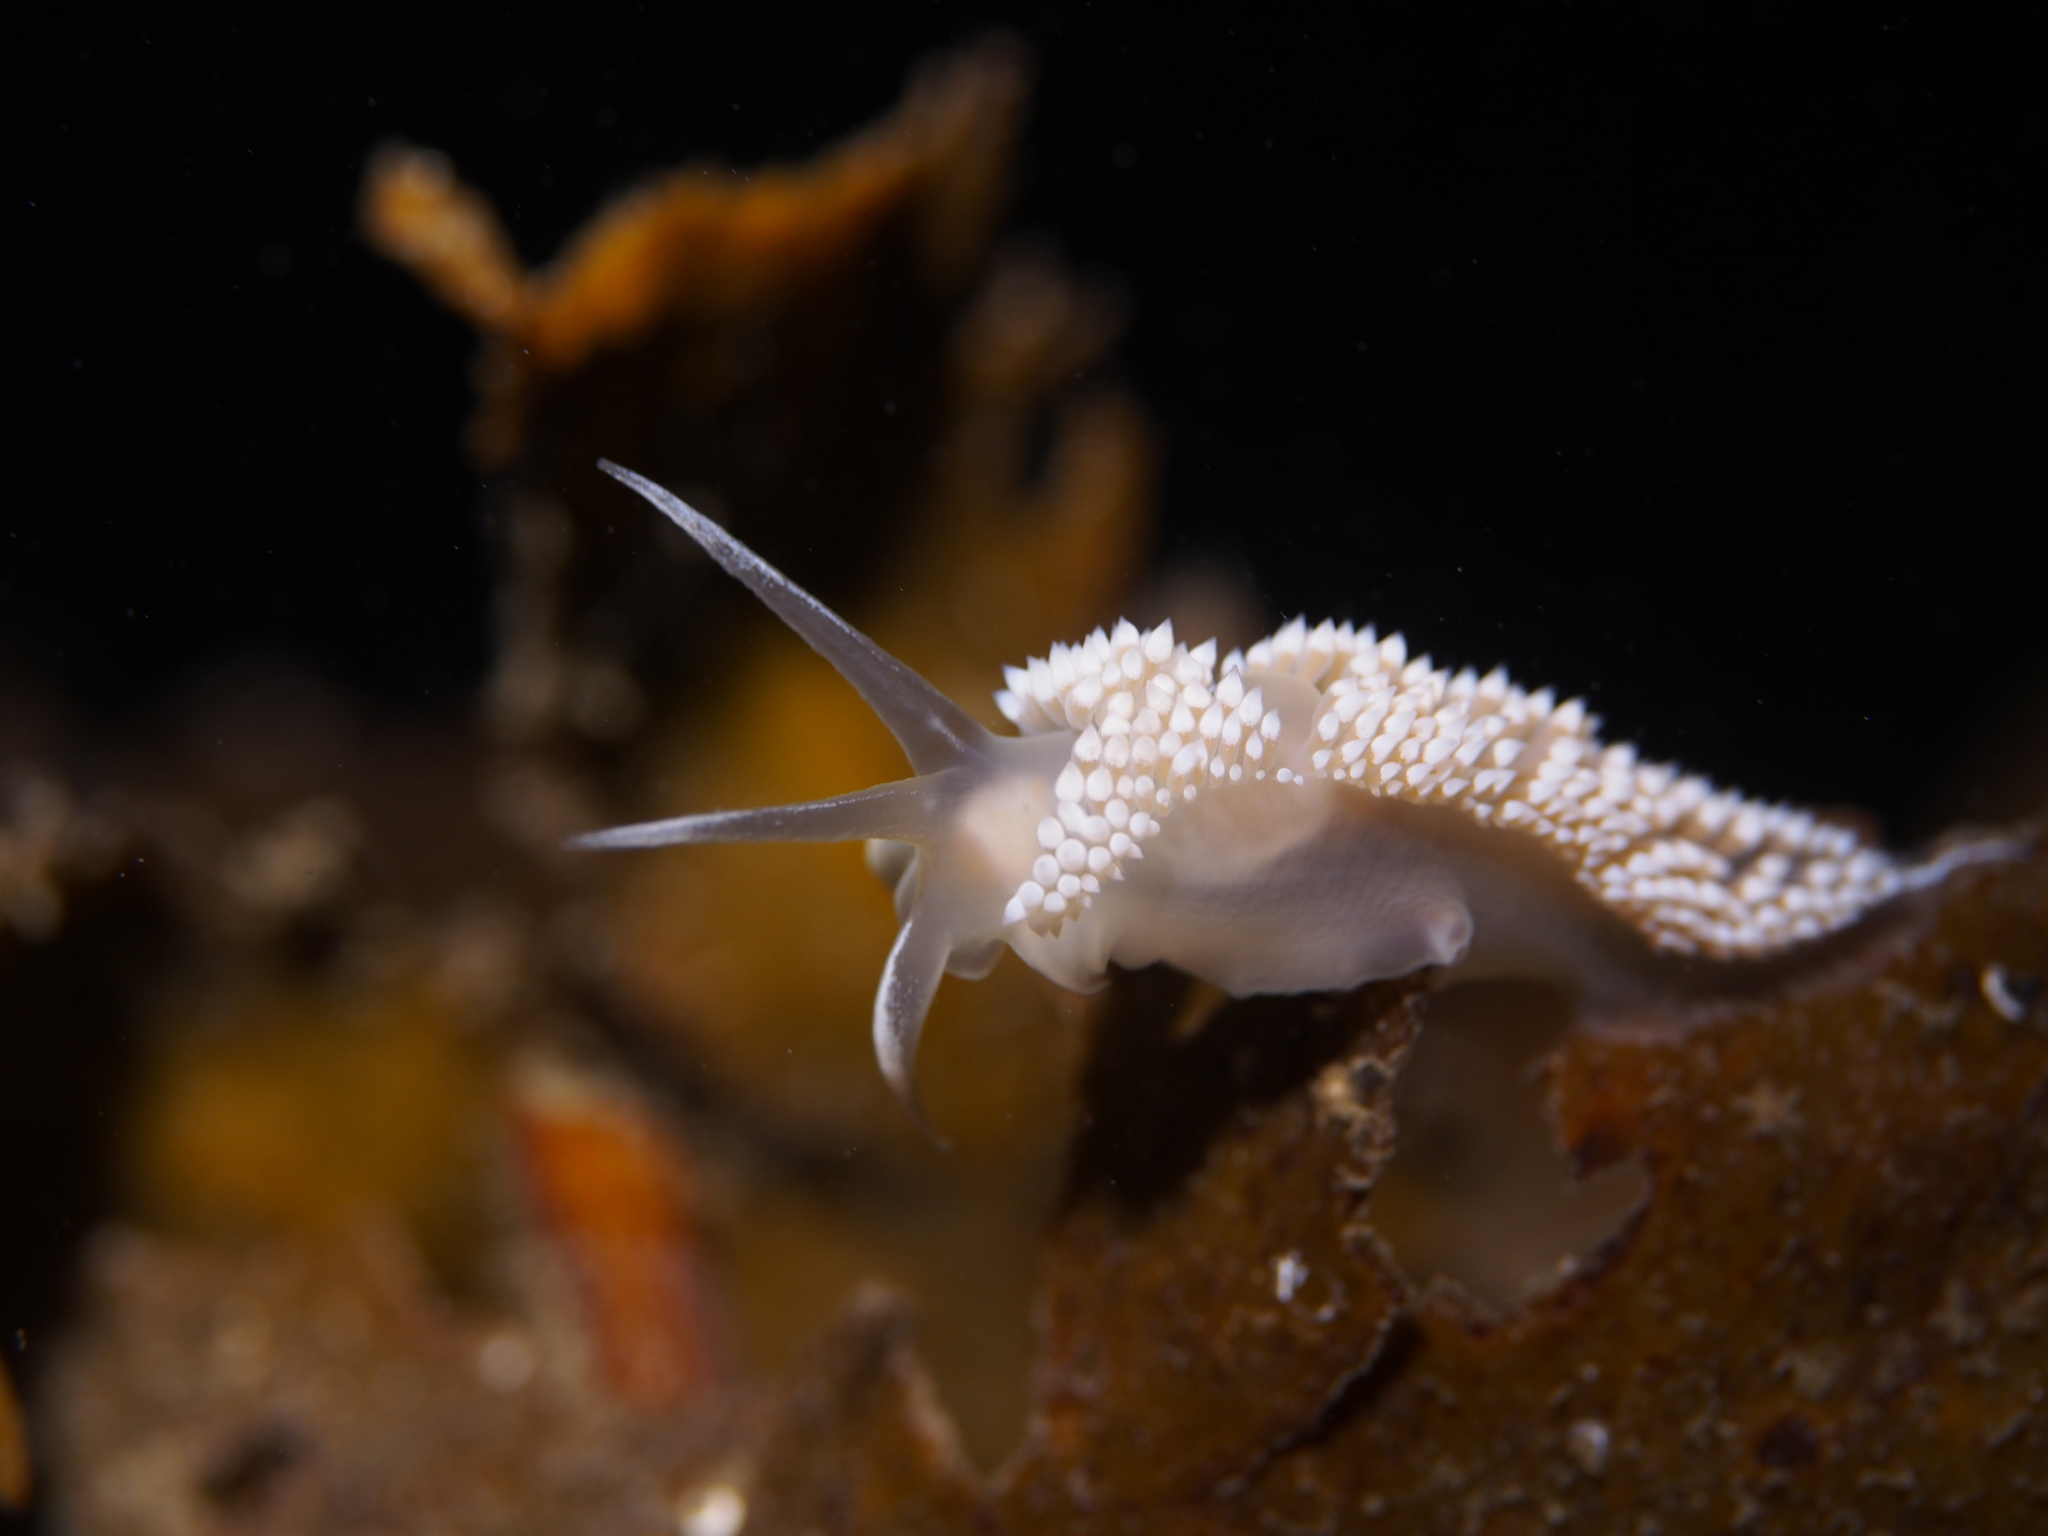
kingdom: Animalia
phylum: Mollusca
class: Gastropoda
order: Nudibranchia
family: Coryphellidae
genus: Coryphella
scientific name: Coryphella verrucosa
